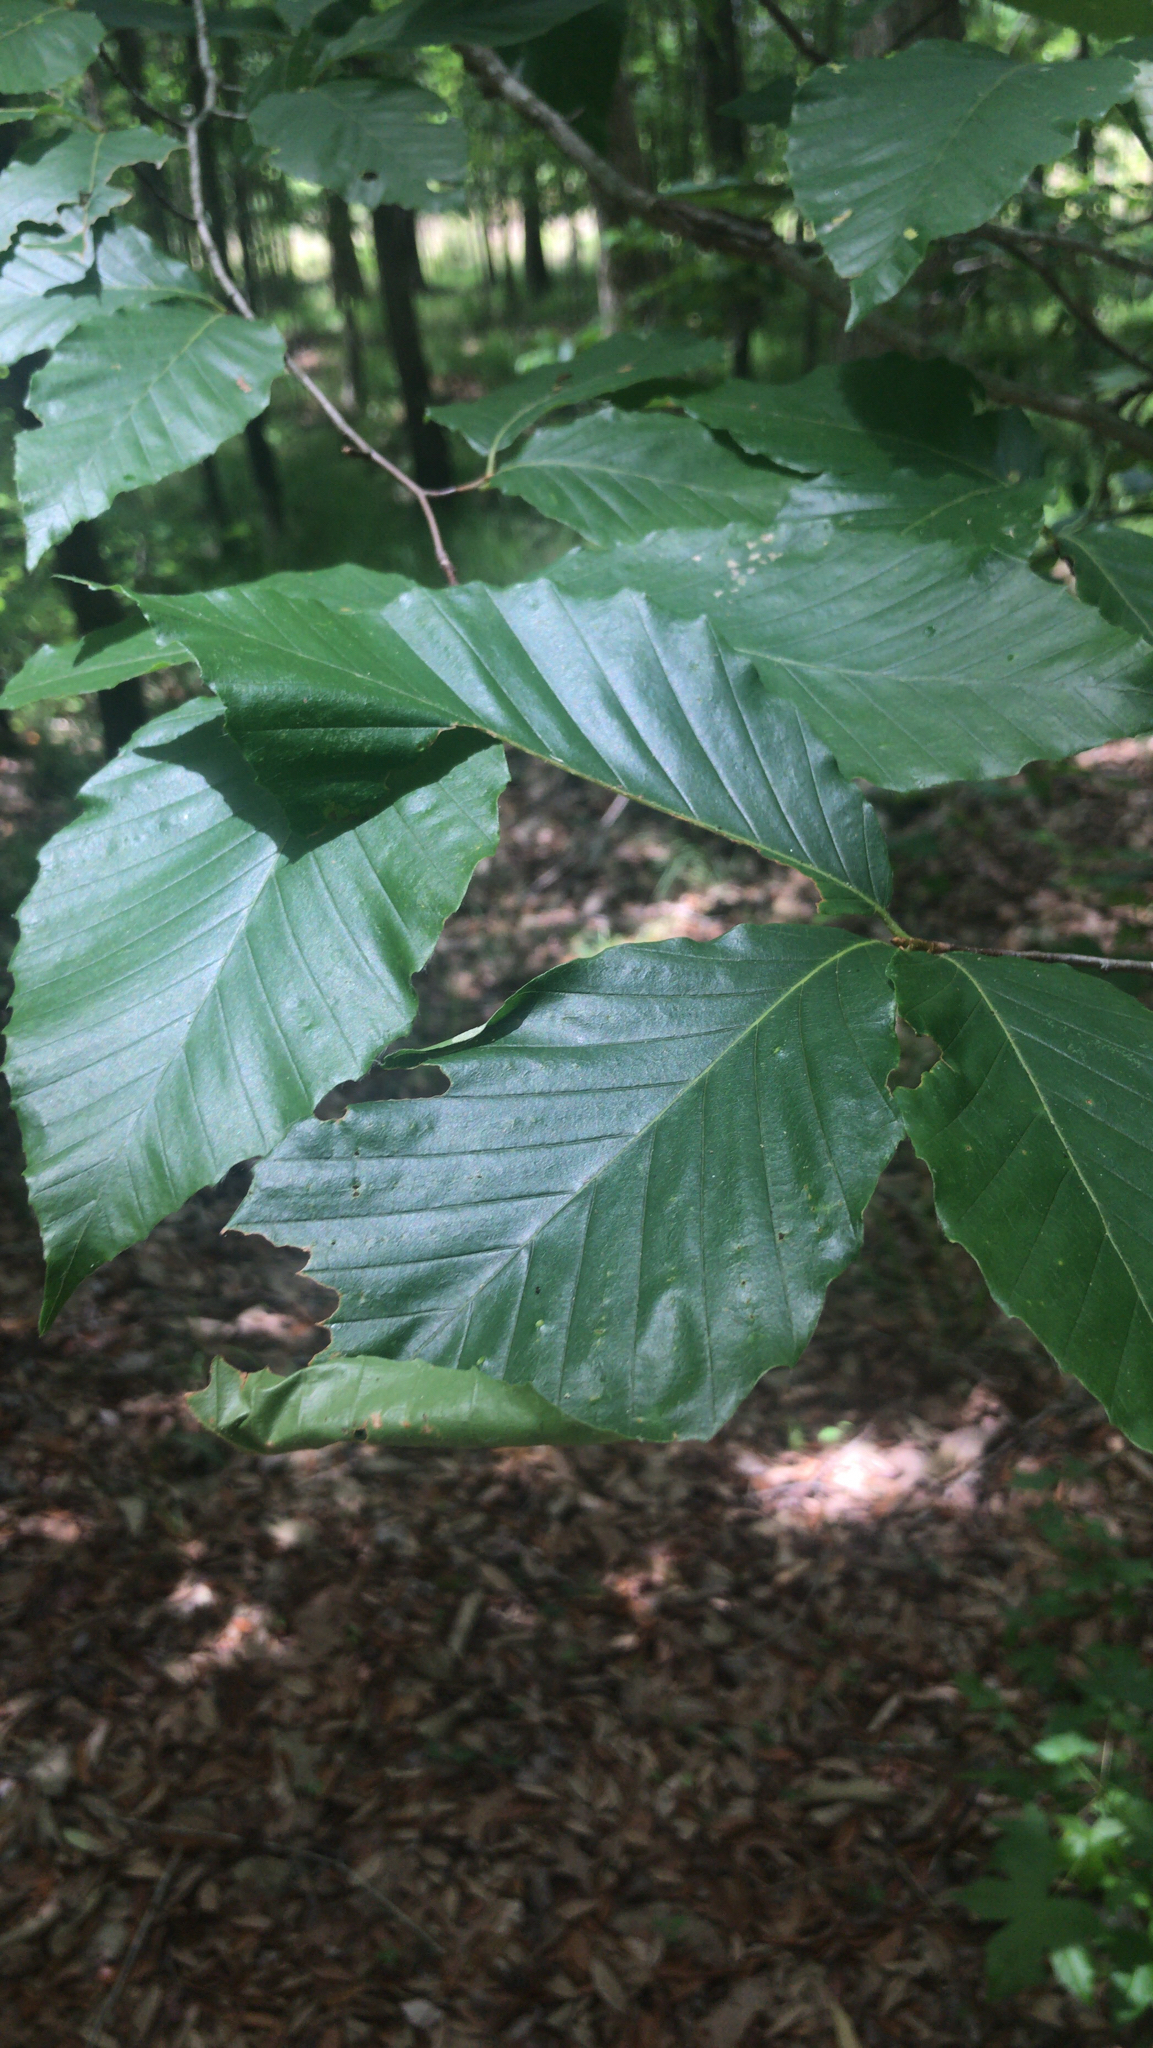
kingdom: Plantae
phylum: Tracheophyta
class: Magnoliopsida
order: Fagales
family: Fagaceae
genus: Fagus
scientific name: Fagus grandifolia
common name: American beech
